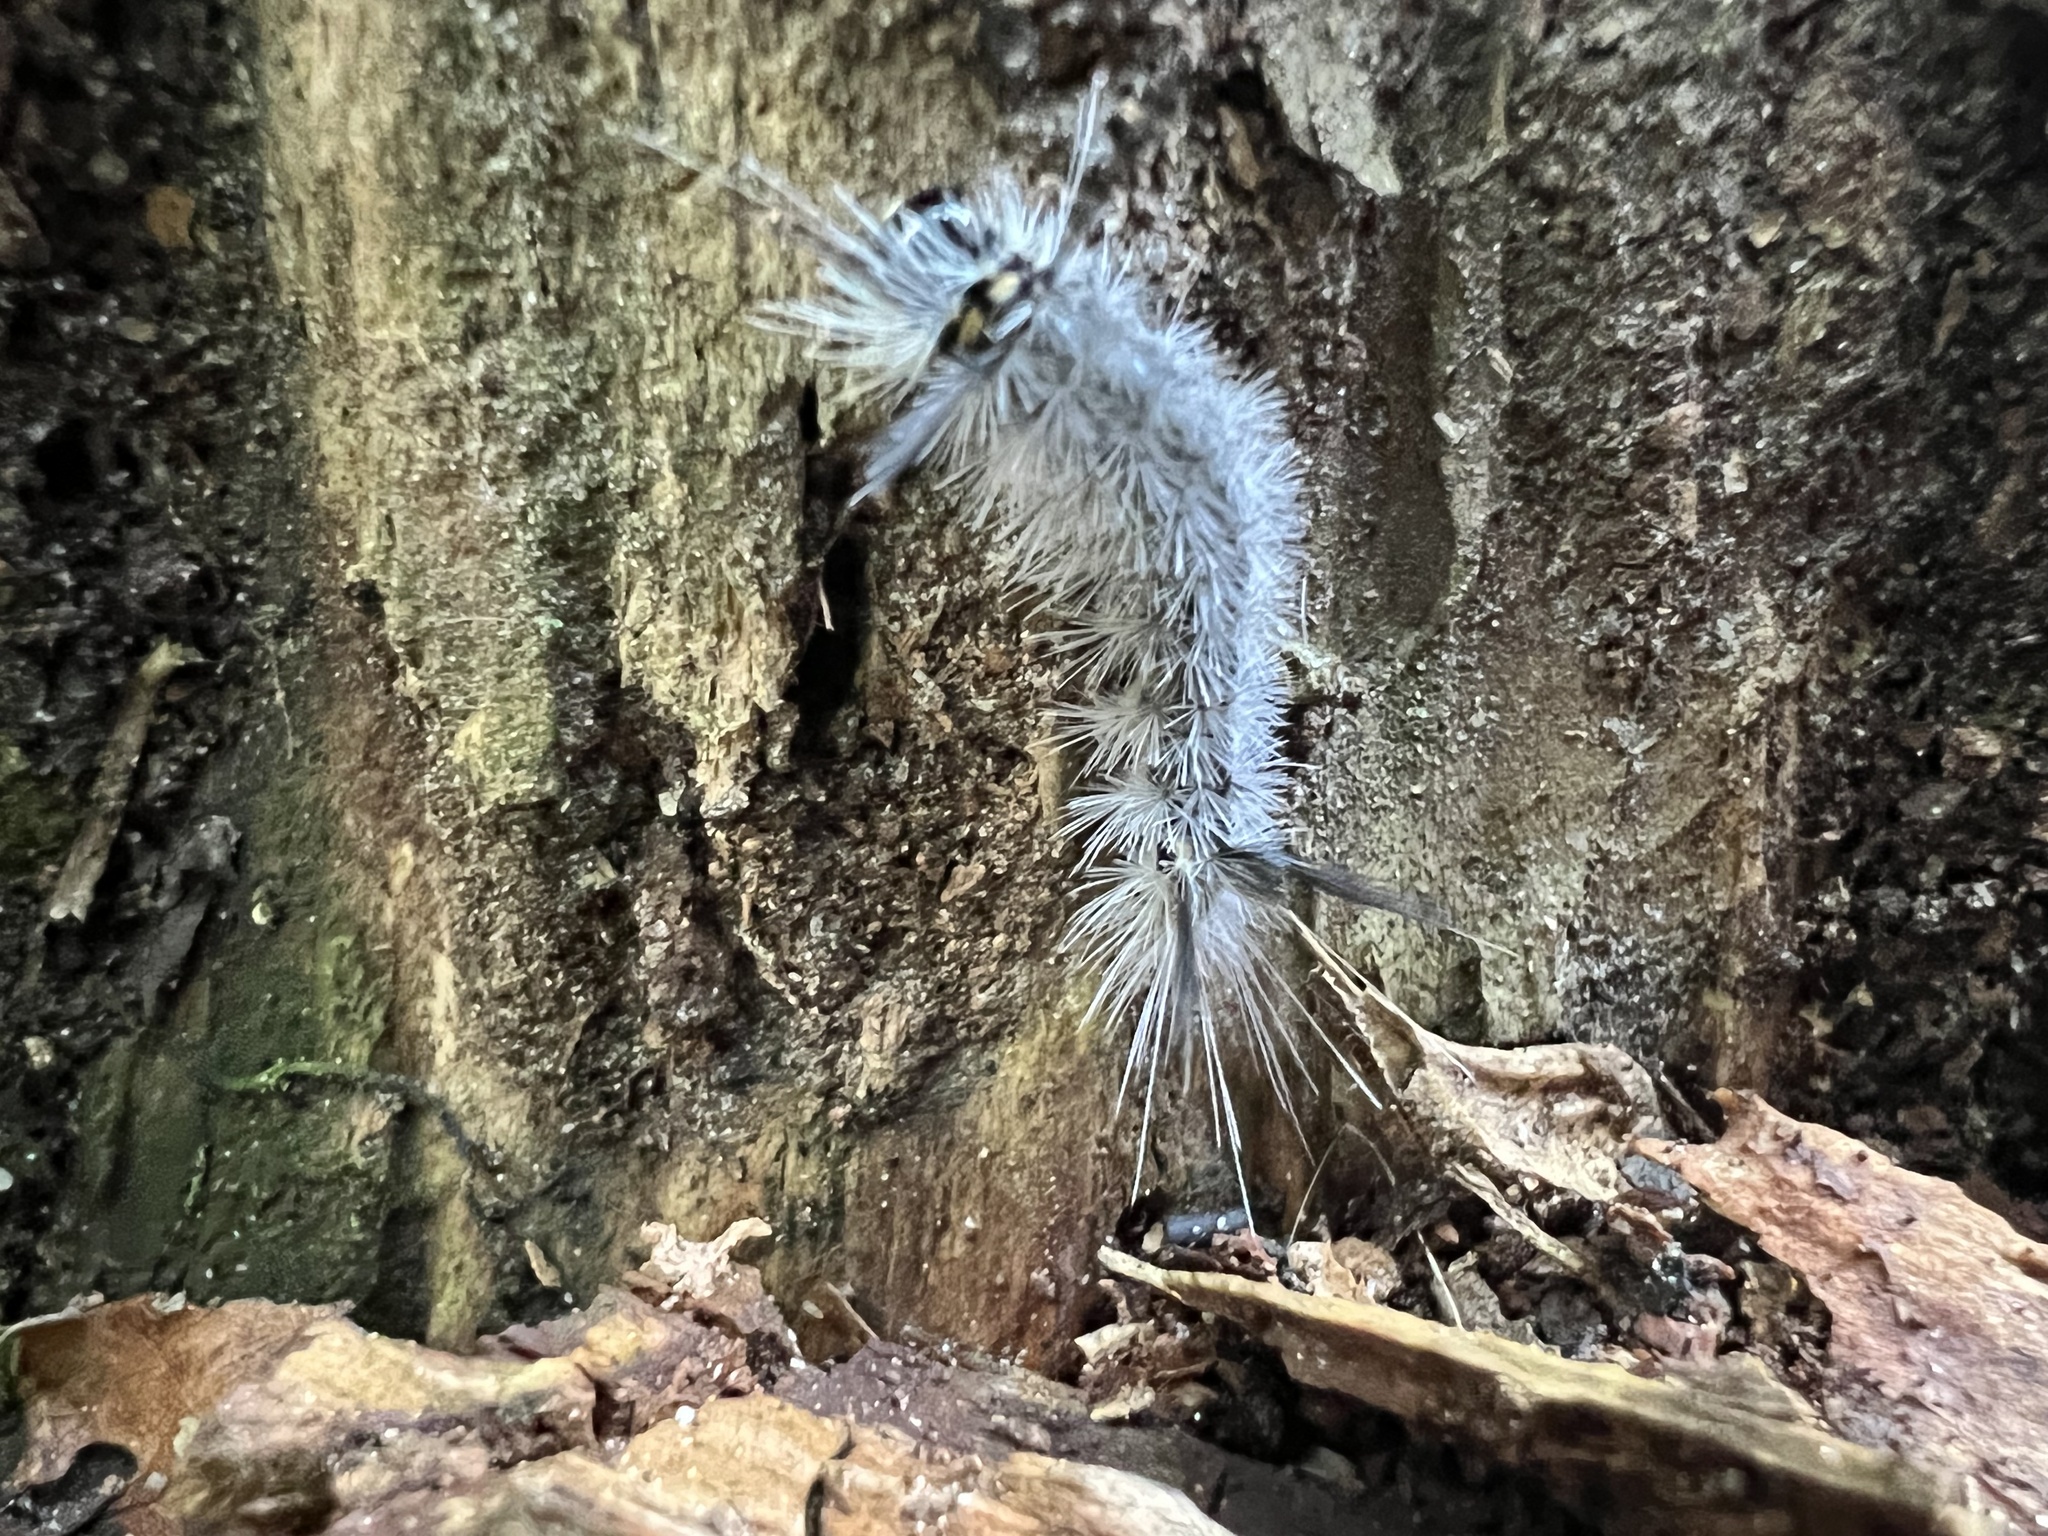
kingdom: Animalia
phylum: Arthropoda
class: Insecta
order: Lepidoptera
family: Erebidae
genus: Halysidota
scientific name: Halysidota tessellaris
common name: Banded tussock moth
